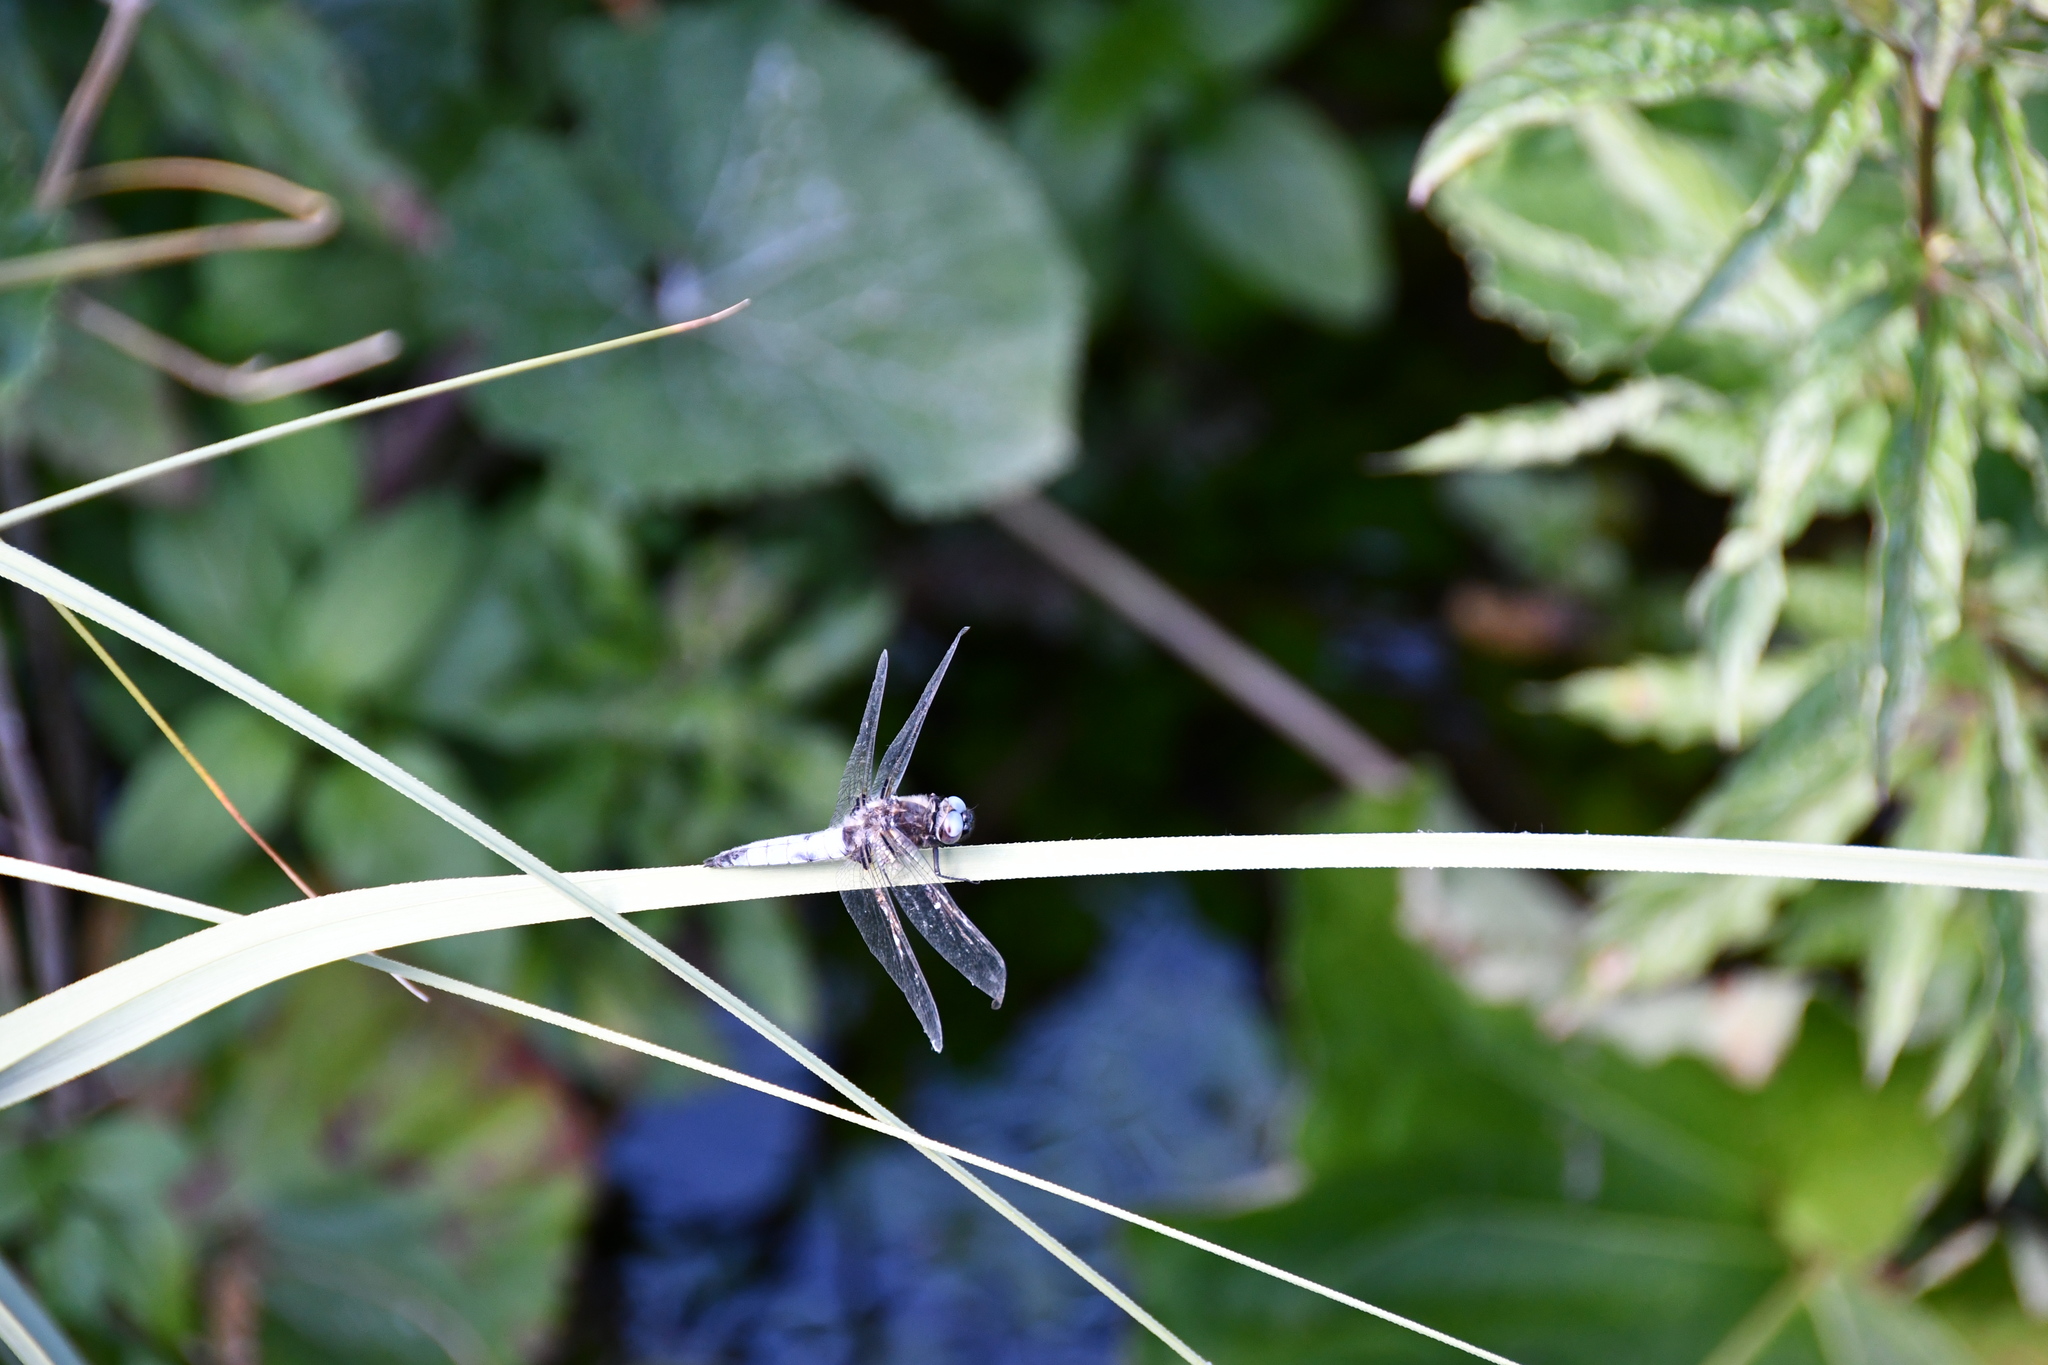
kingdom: Animalia
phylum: Arthropoda
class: Insecta
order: Odonata
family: Libellulidae
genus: Libellula
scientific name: Libellula fulva
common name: Blue chaser
